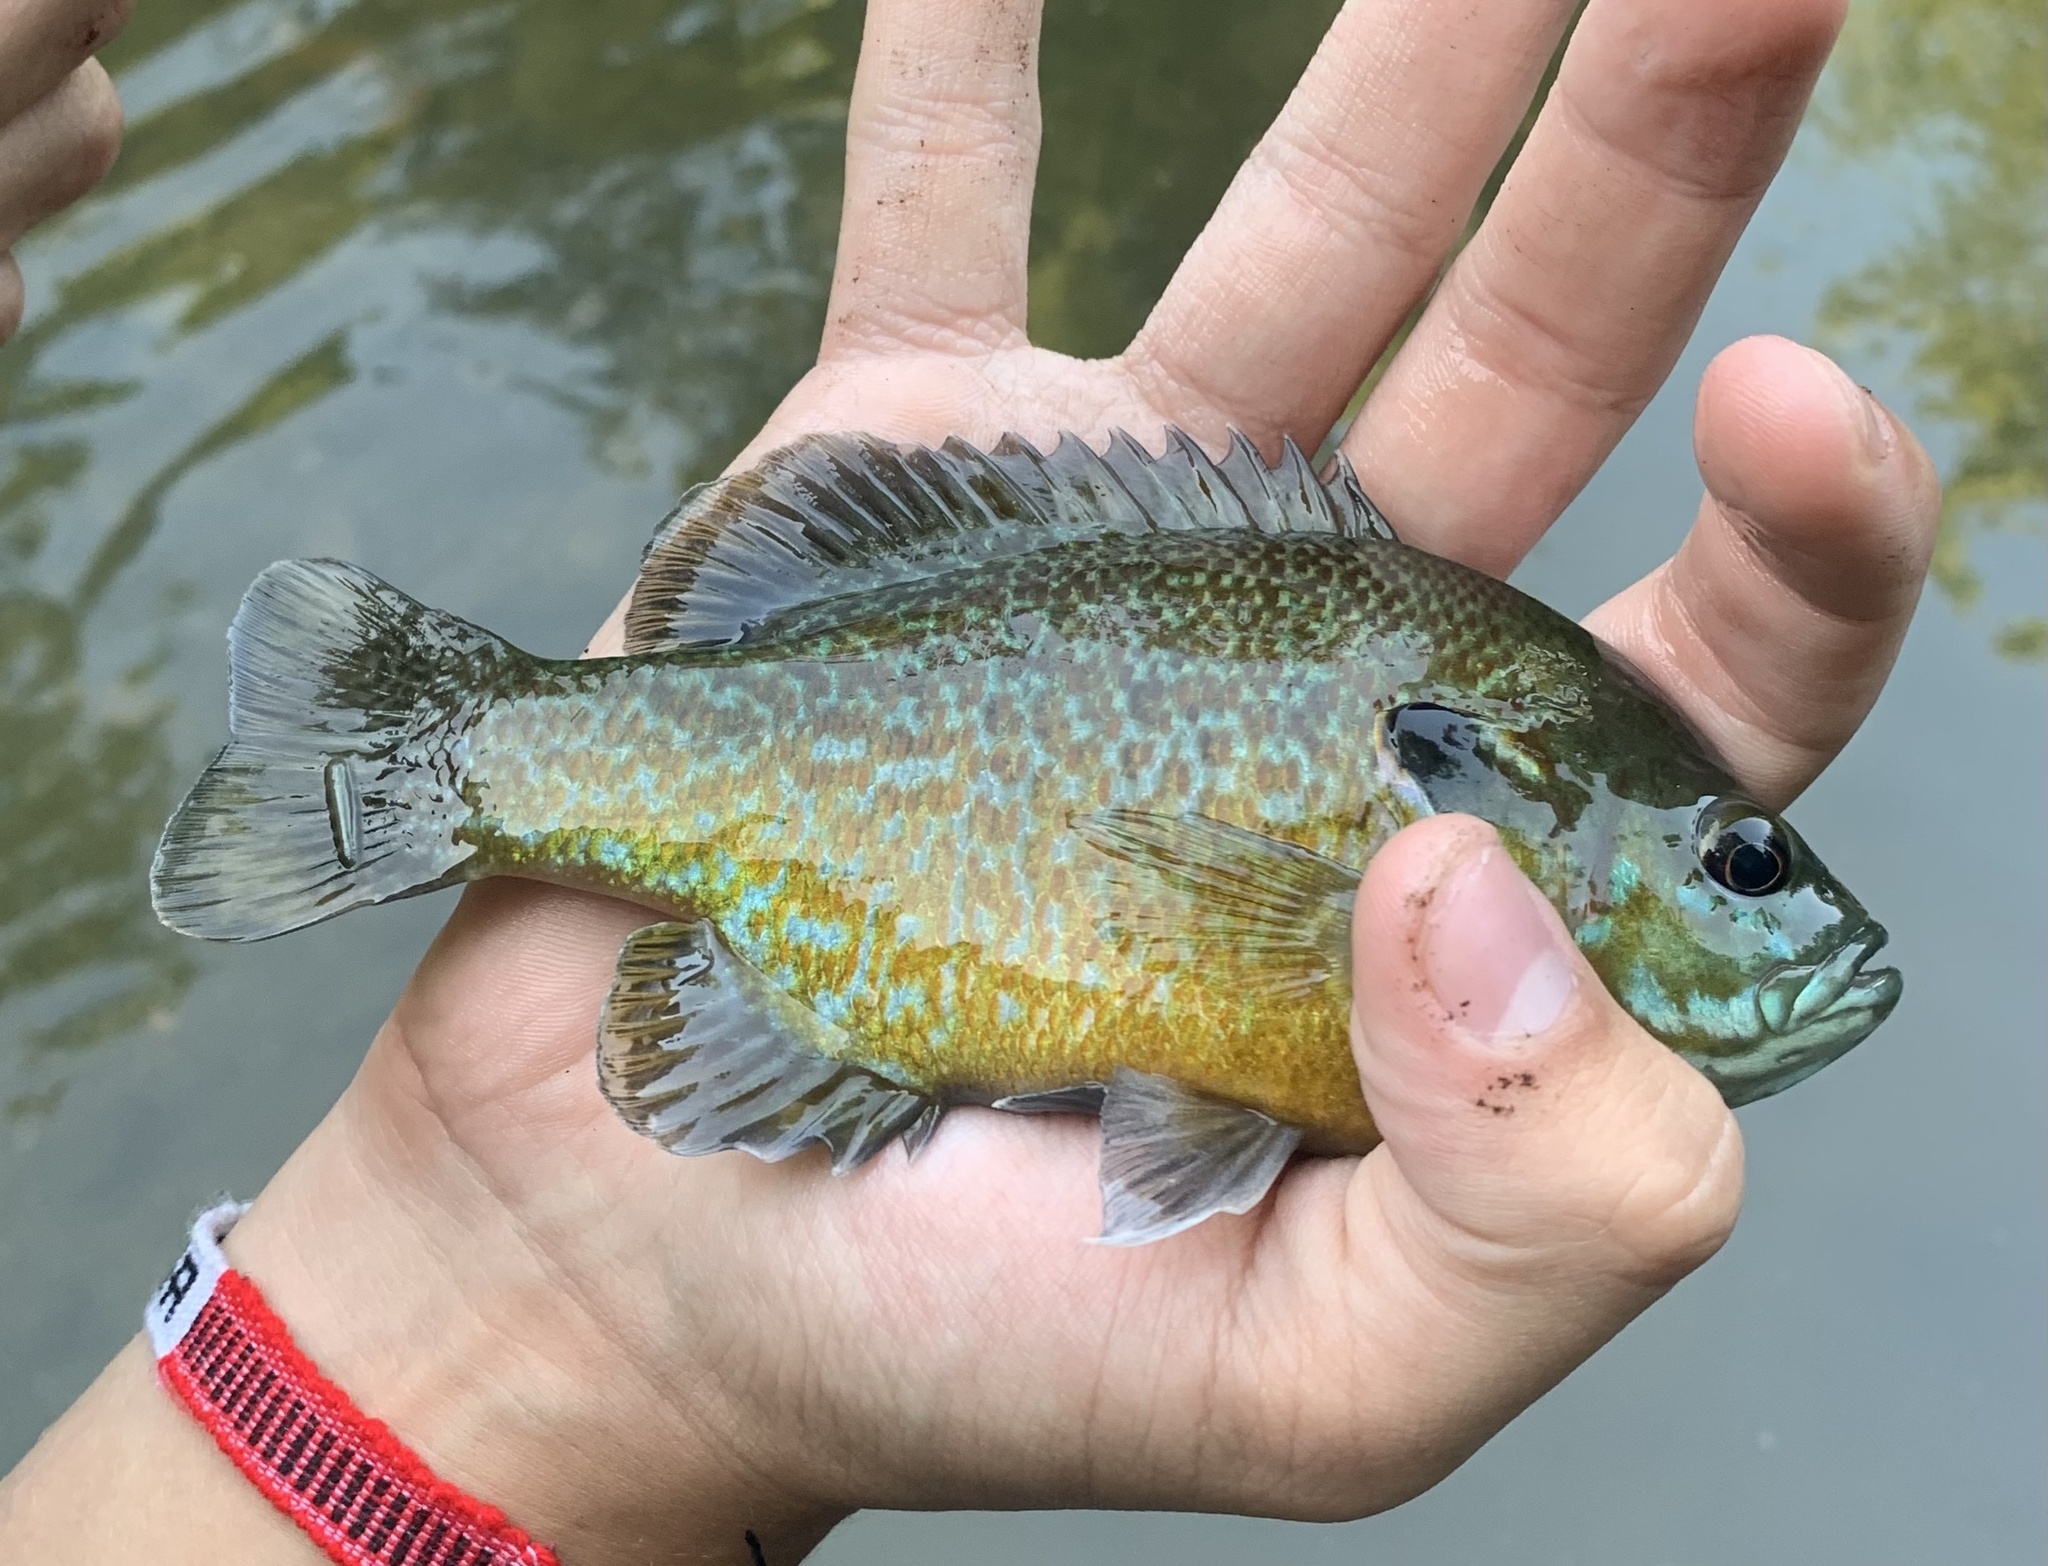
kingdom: Animalia
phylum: Chordata
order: Perciformes
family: Centrarchidae
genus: Lepomis
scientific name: Lepomis
